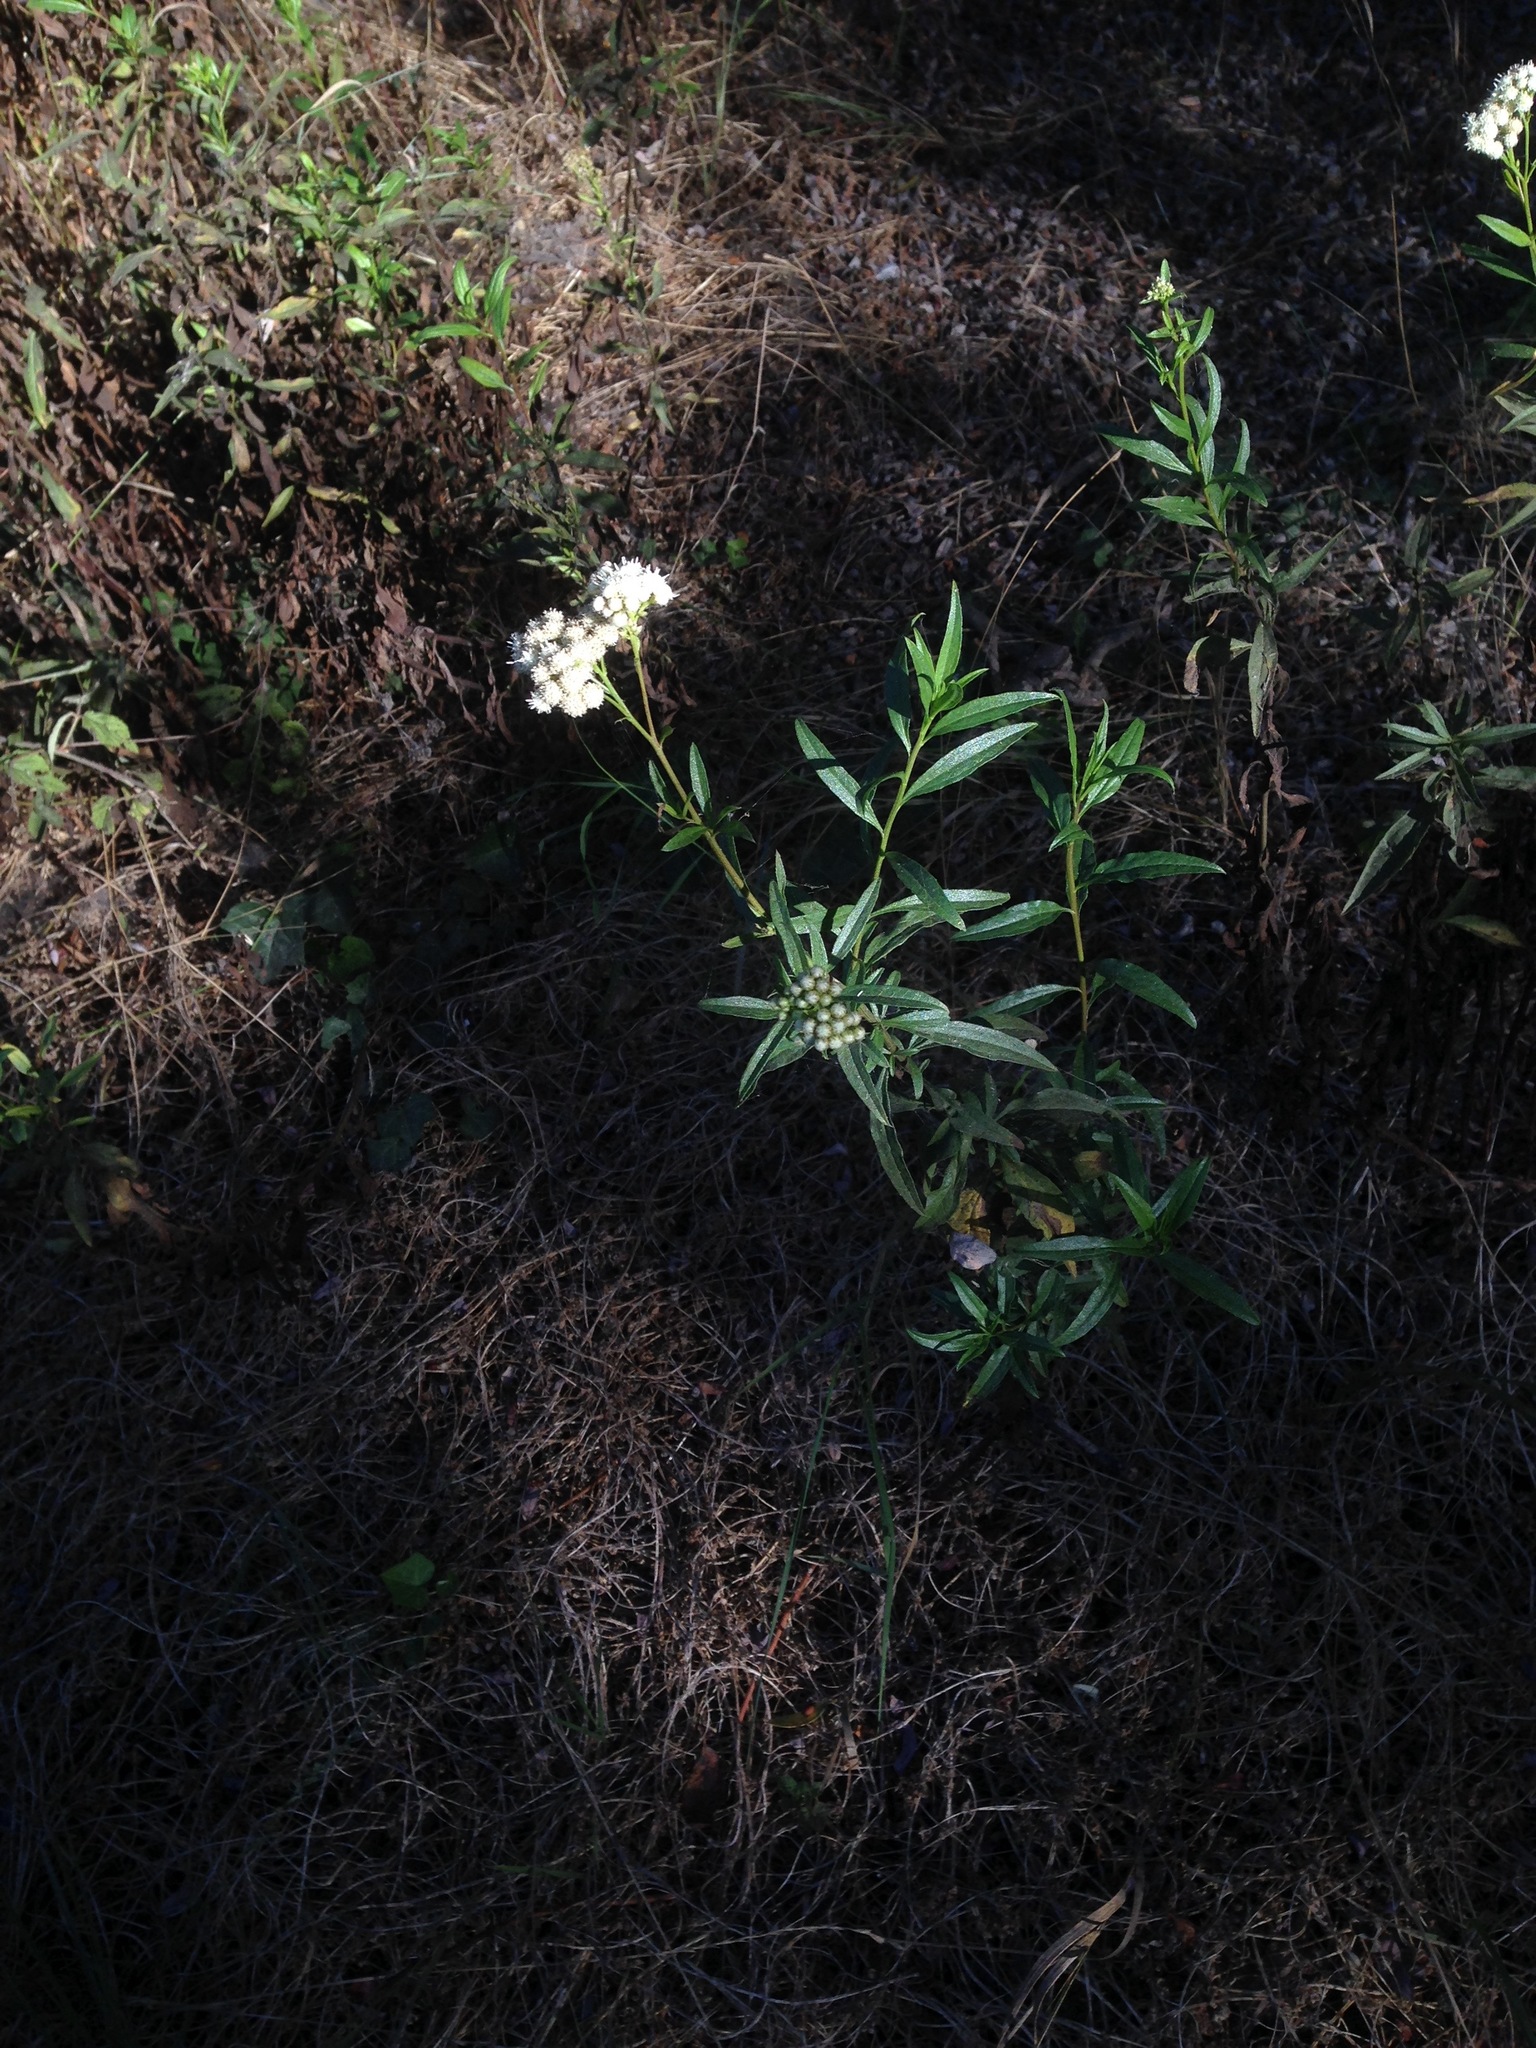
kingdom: Plantae
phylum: Tracheophyta
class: Magnoliopsida
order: Asterales
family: Asteraceae
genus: Baccharis
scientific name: Baccharis glutinosa
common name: Saltmarsh baccharis
